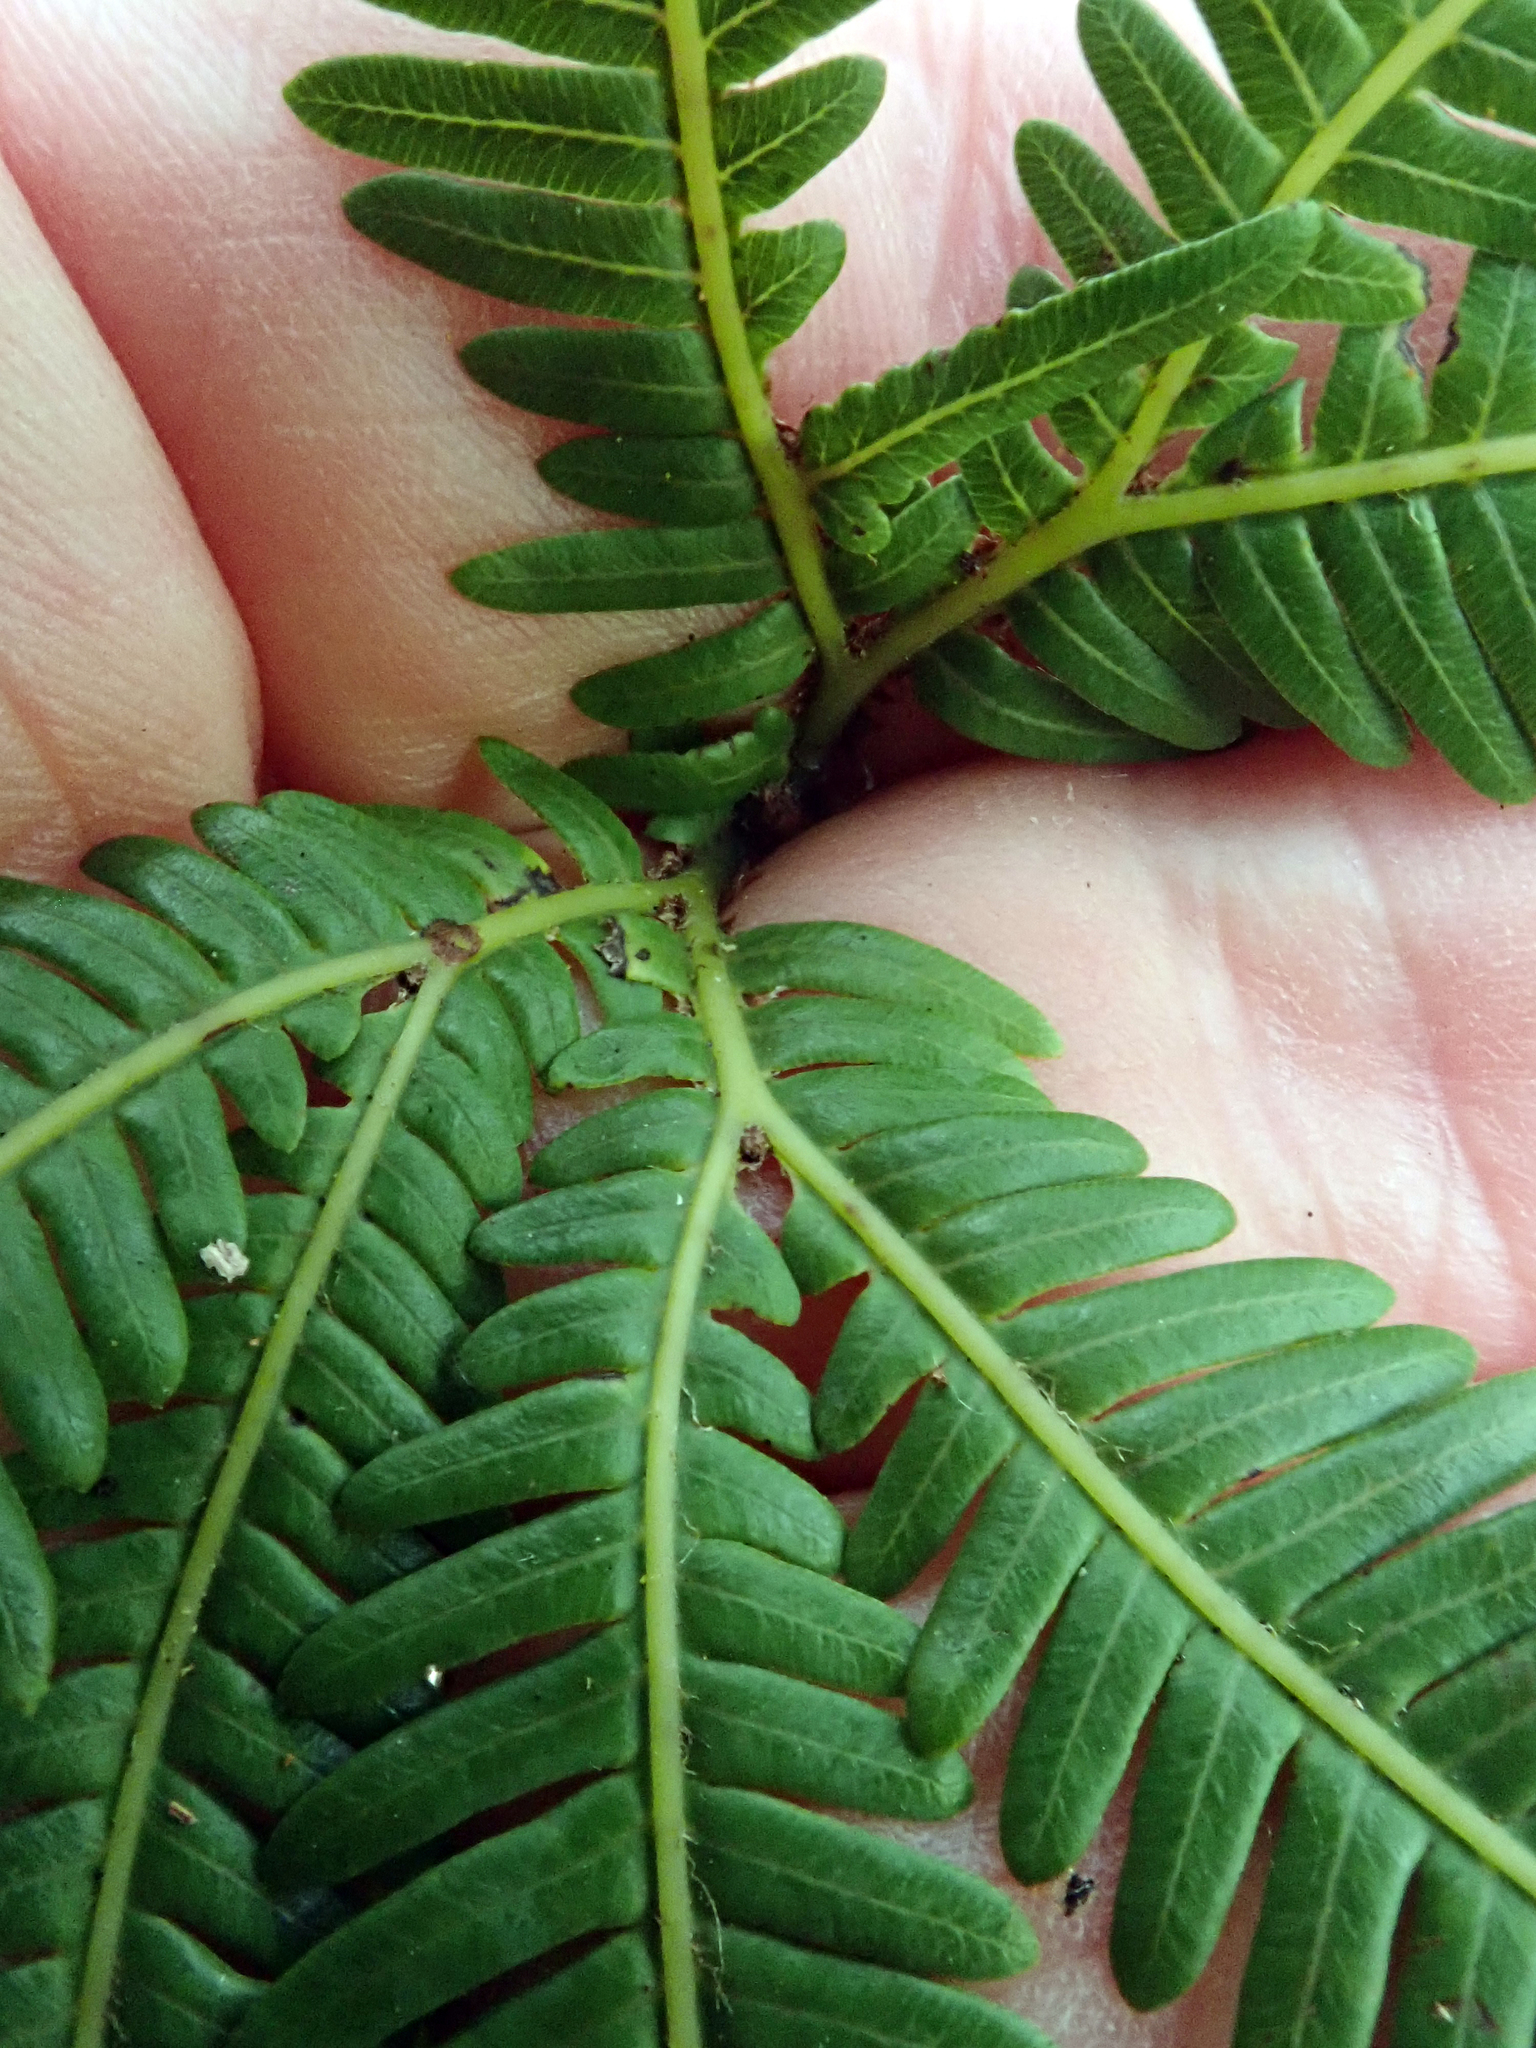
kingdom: Plantae
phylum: Tracheophyta
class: Polypodiopsida
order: Gleicheniales
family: Gleicheniaceae
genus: Sticherus
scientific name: Sticherus cunninghamii
